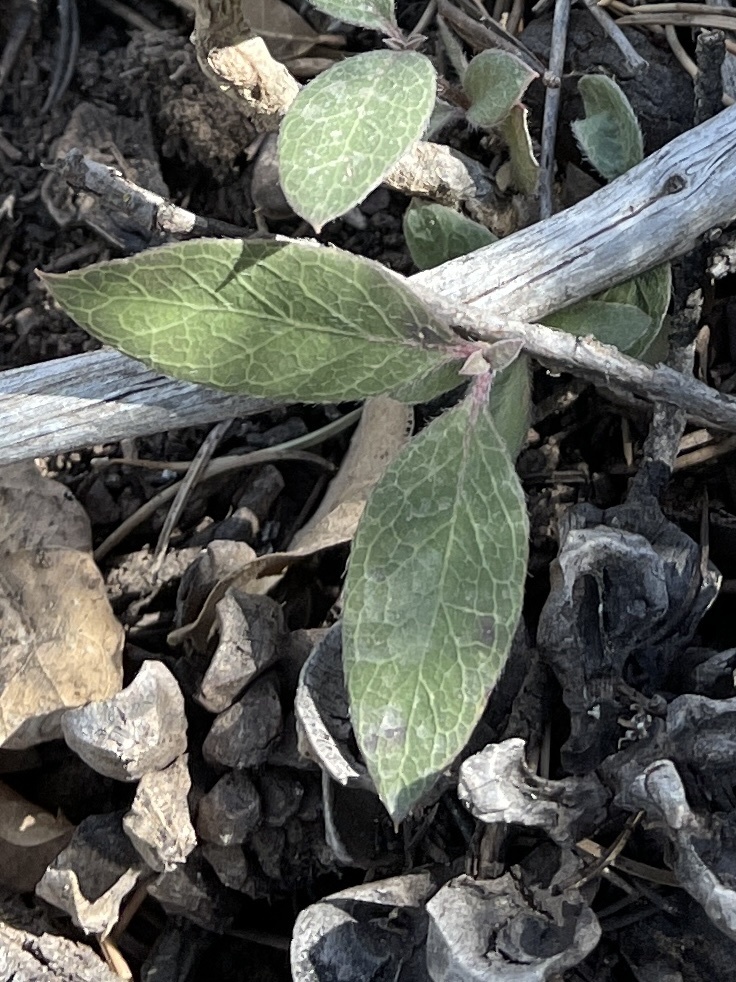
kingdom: Plantae
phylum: Tracheophyta
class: Magnoliopsida
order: Garryales
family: Garryaceae
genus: Garrya
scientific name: Garrya wrightii
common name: Wright's silktassel
